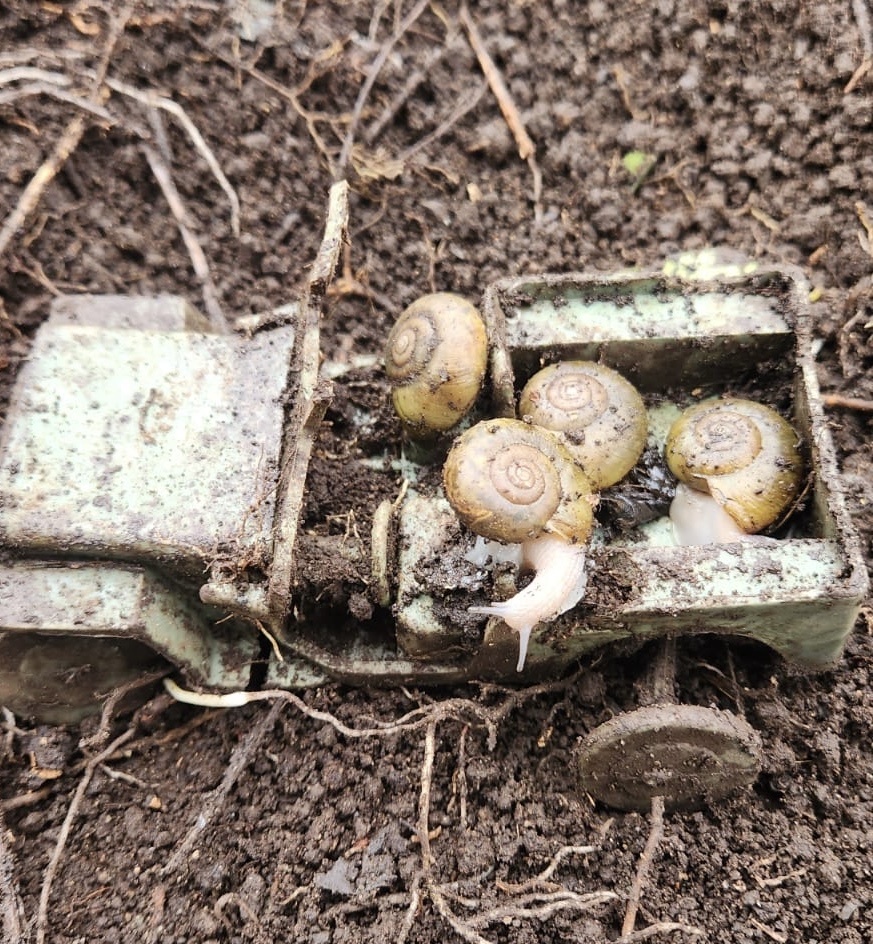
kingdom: Animalia
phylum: Mollusca
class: Gastropoda
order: Stylommatophora
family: Haplotrematidae
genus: Haplotrema
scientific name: Haplotrema vancouverense
